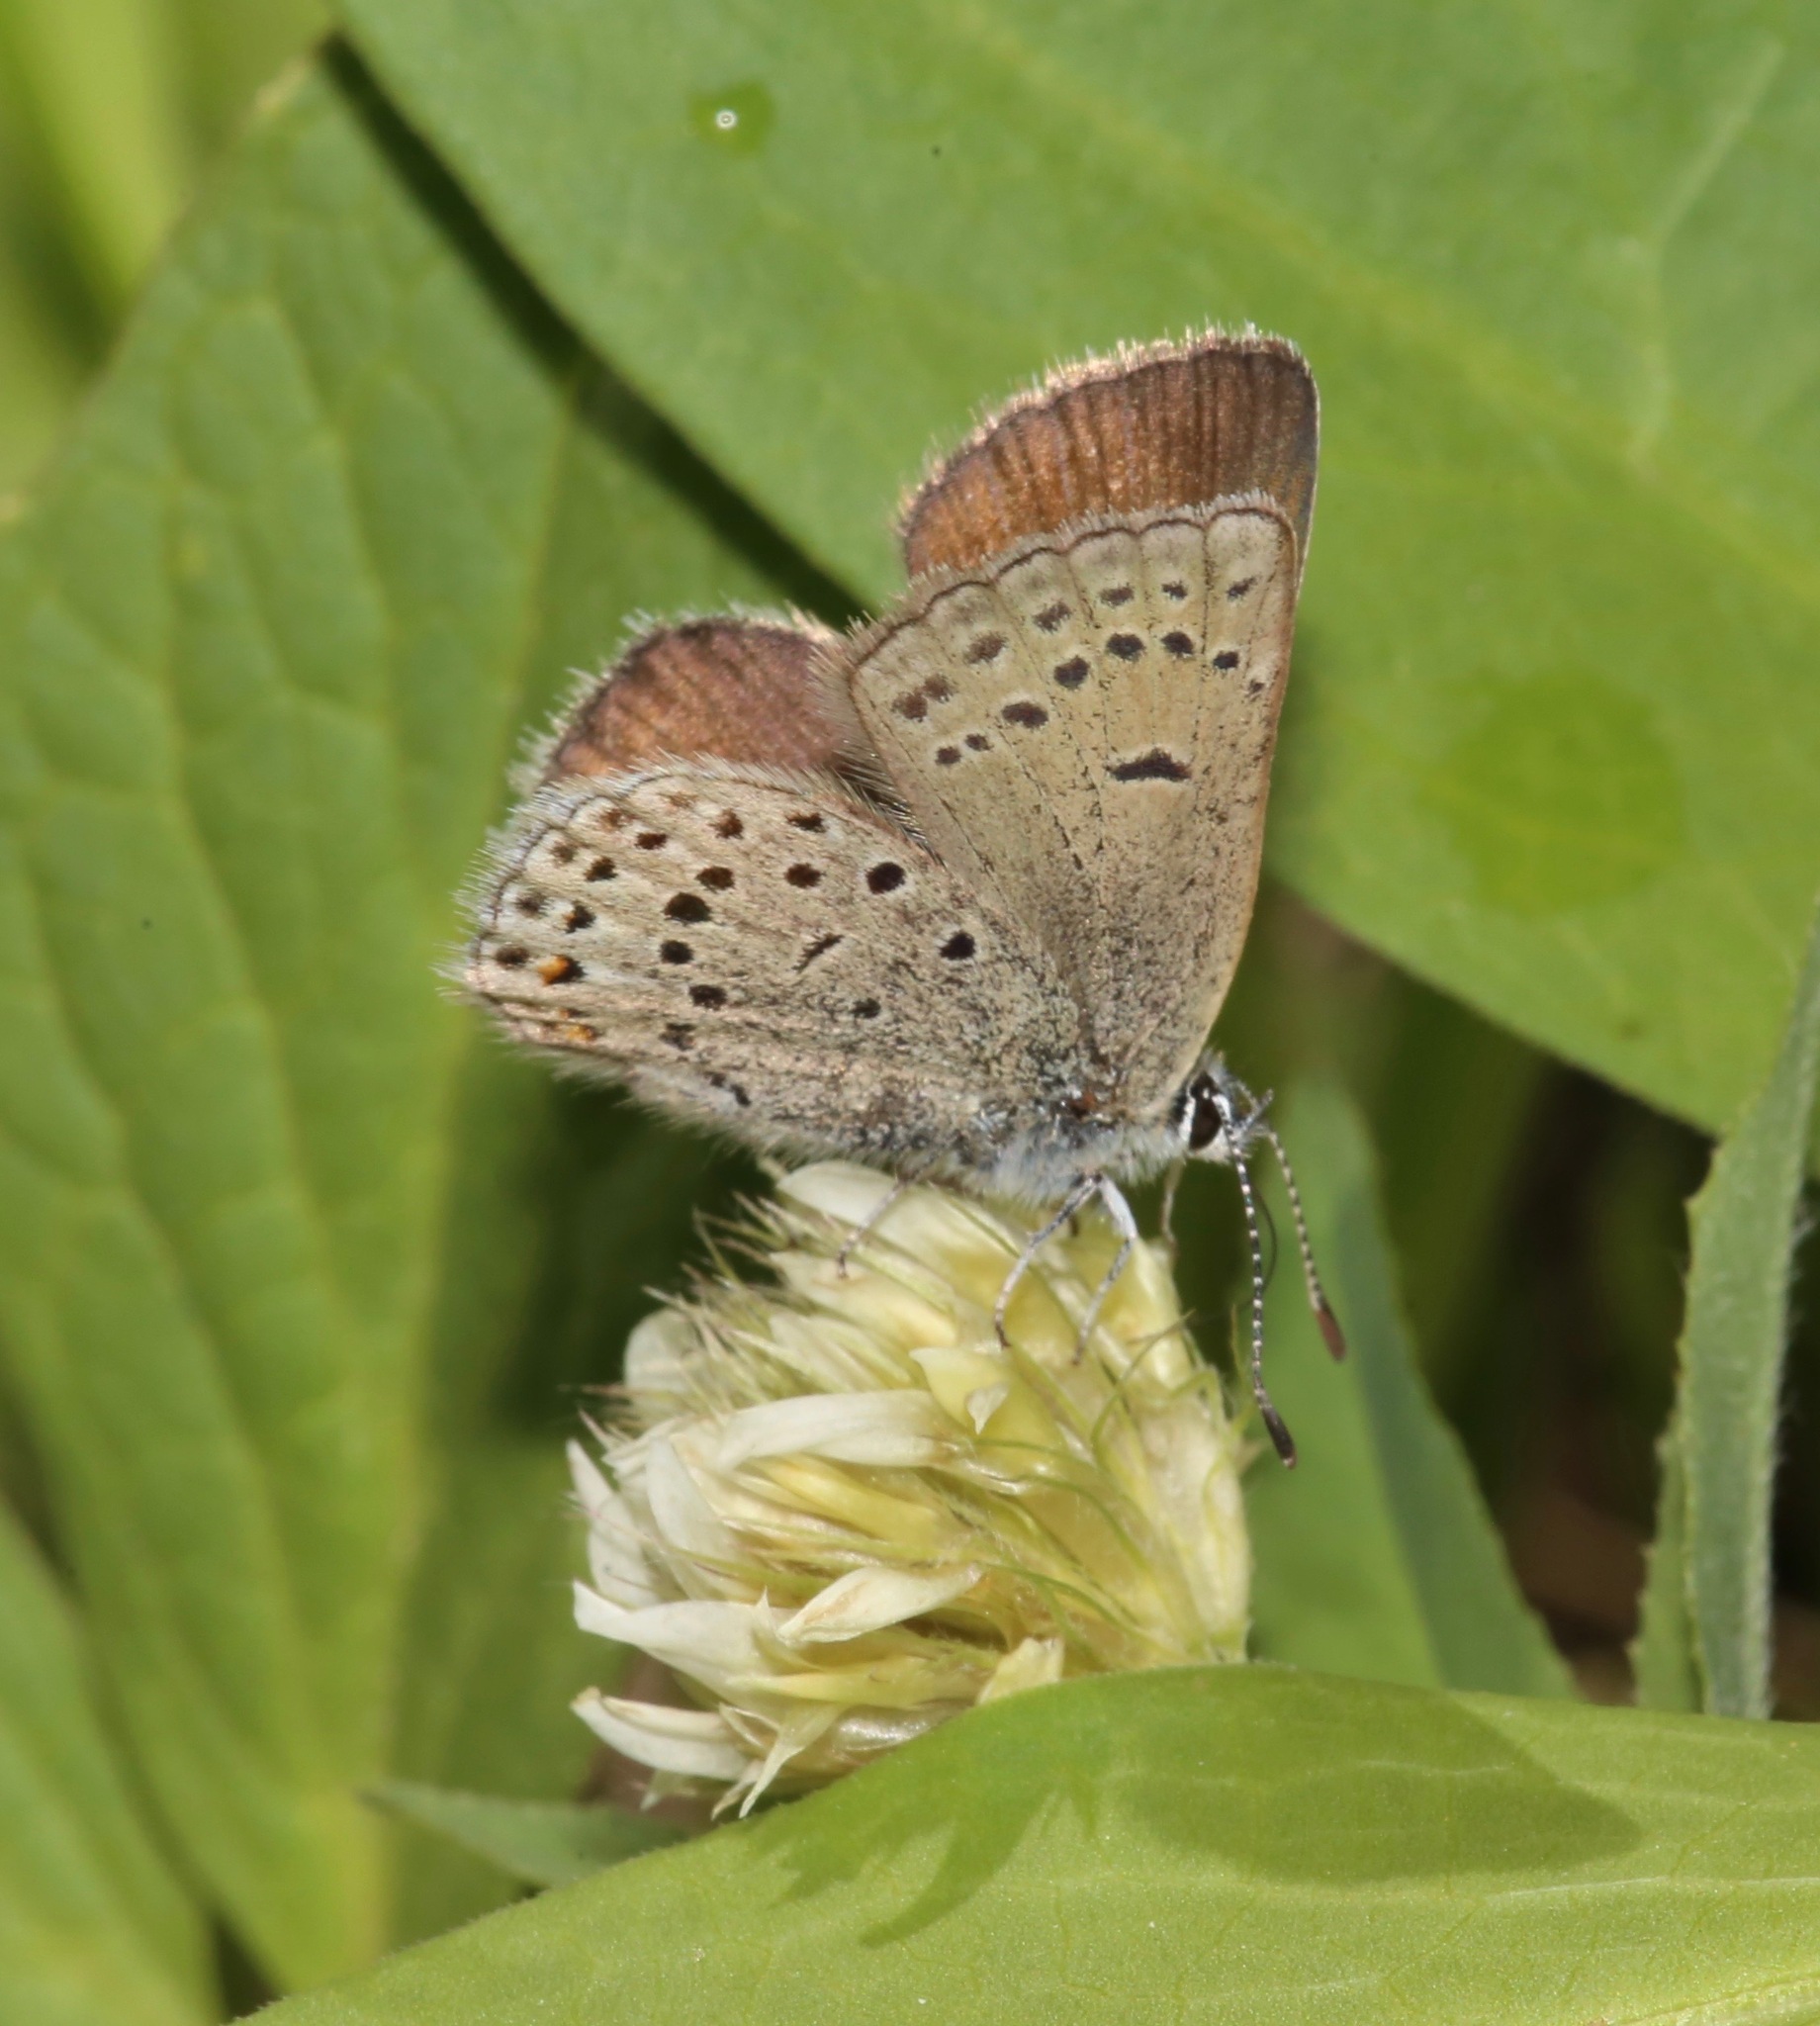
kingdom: Animalia
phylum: Arthropoda
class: Insecta
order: Lepidoptera
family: Lycaenidae
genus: Icaricia
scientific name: Icaricia saepiolus
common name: Greenish blue
